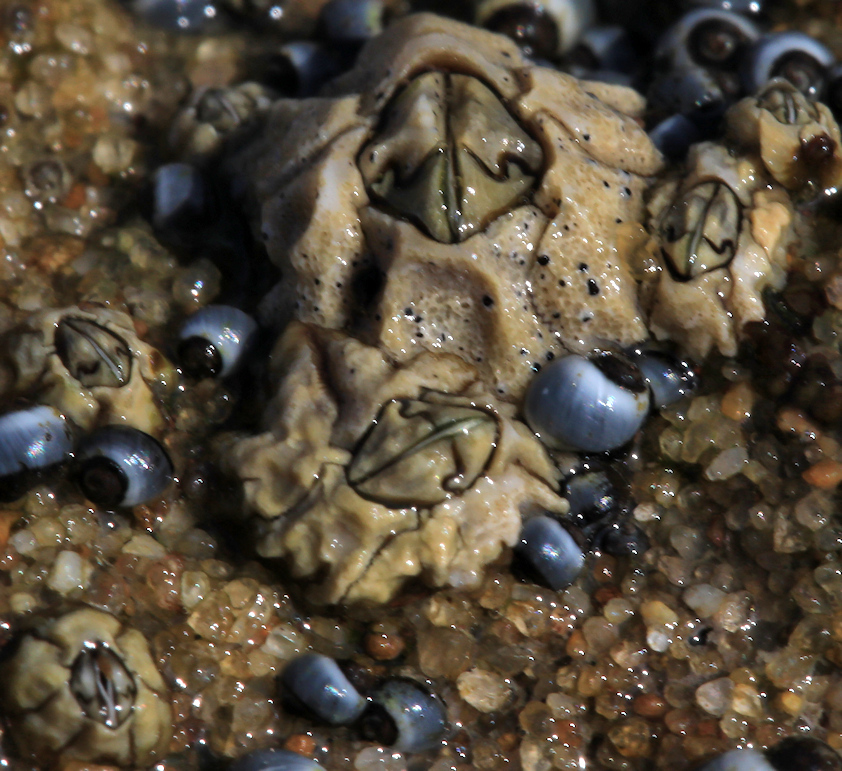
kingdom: Animalia
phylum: Arthropoda
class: Maxillopoda
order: Sessilia
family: Chthamalidae
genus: Chthamalus
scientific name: Chthamalus dentatus
